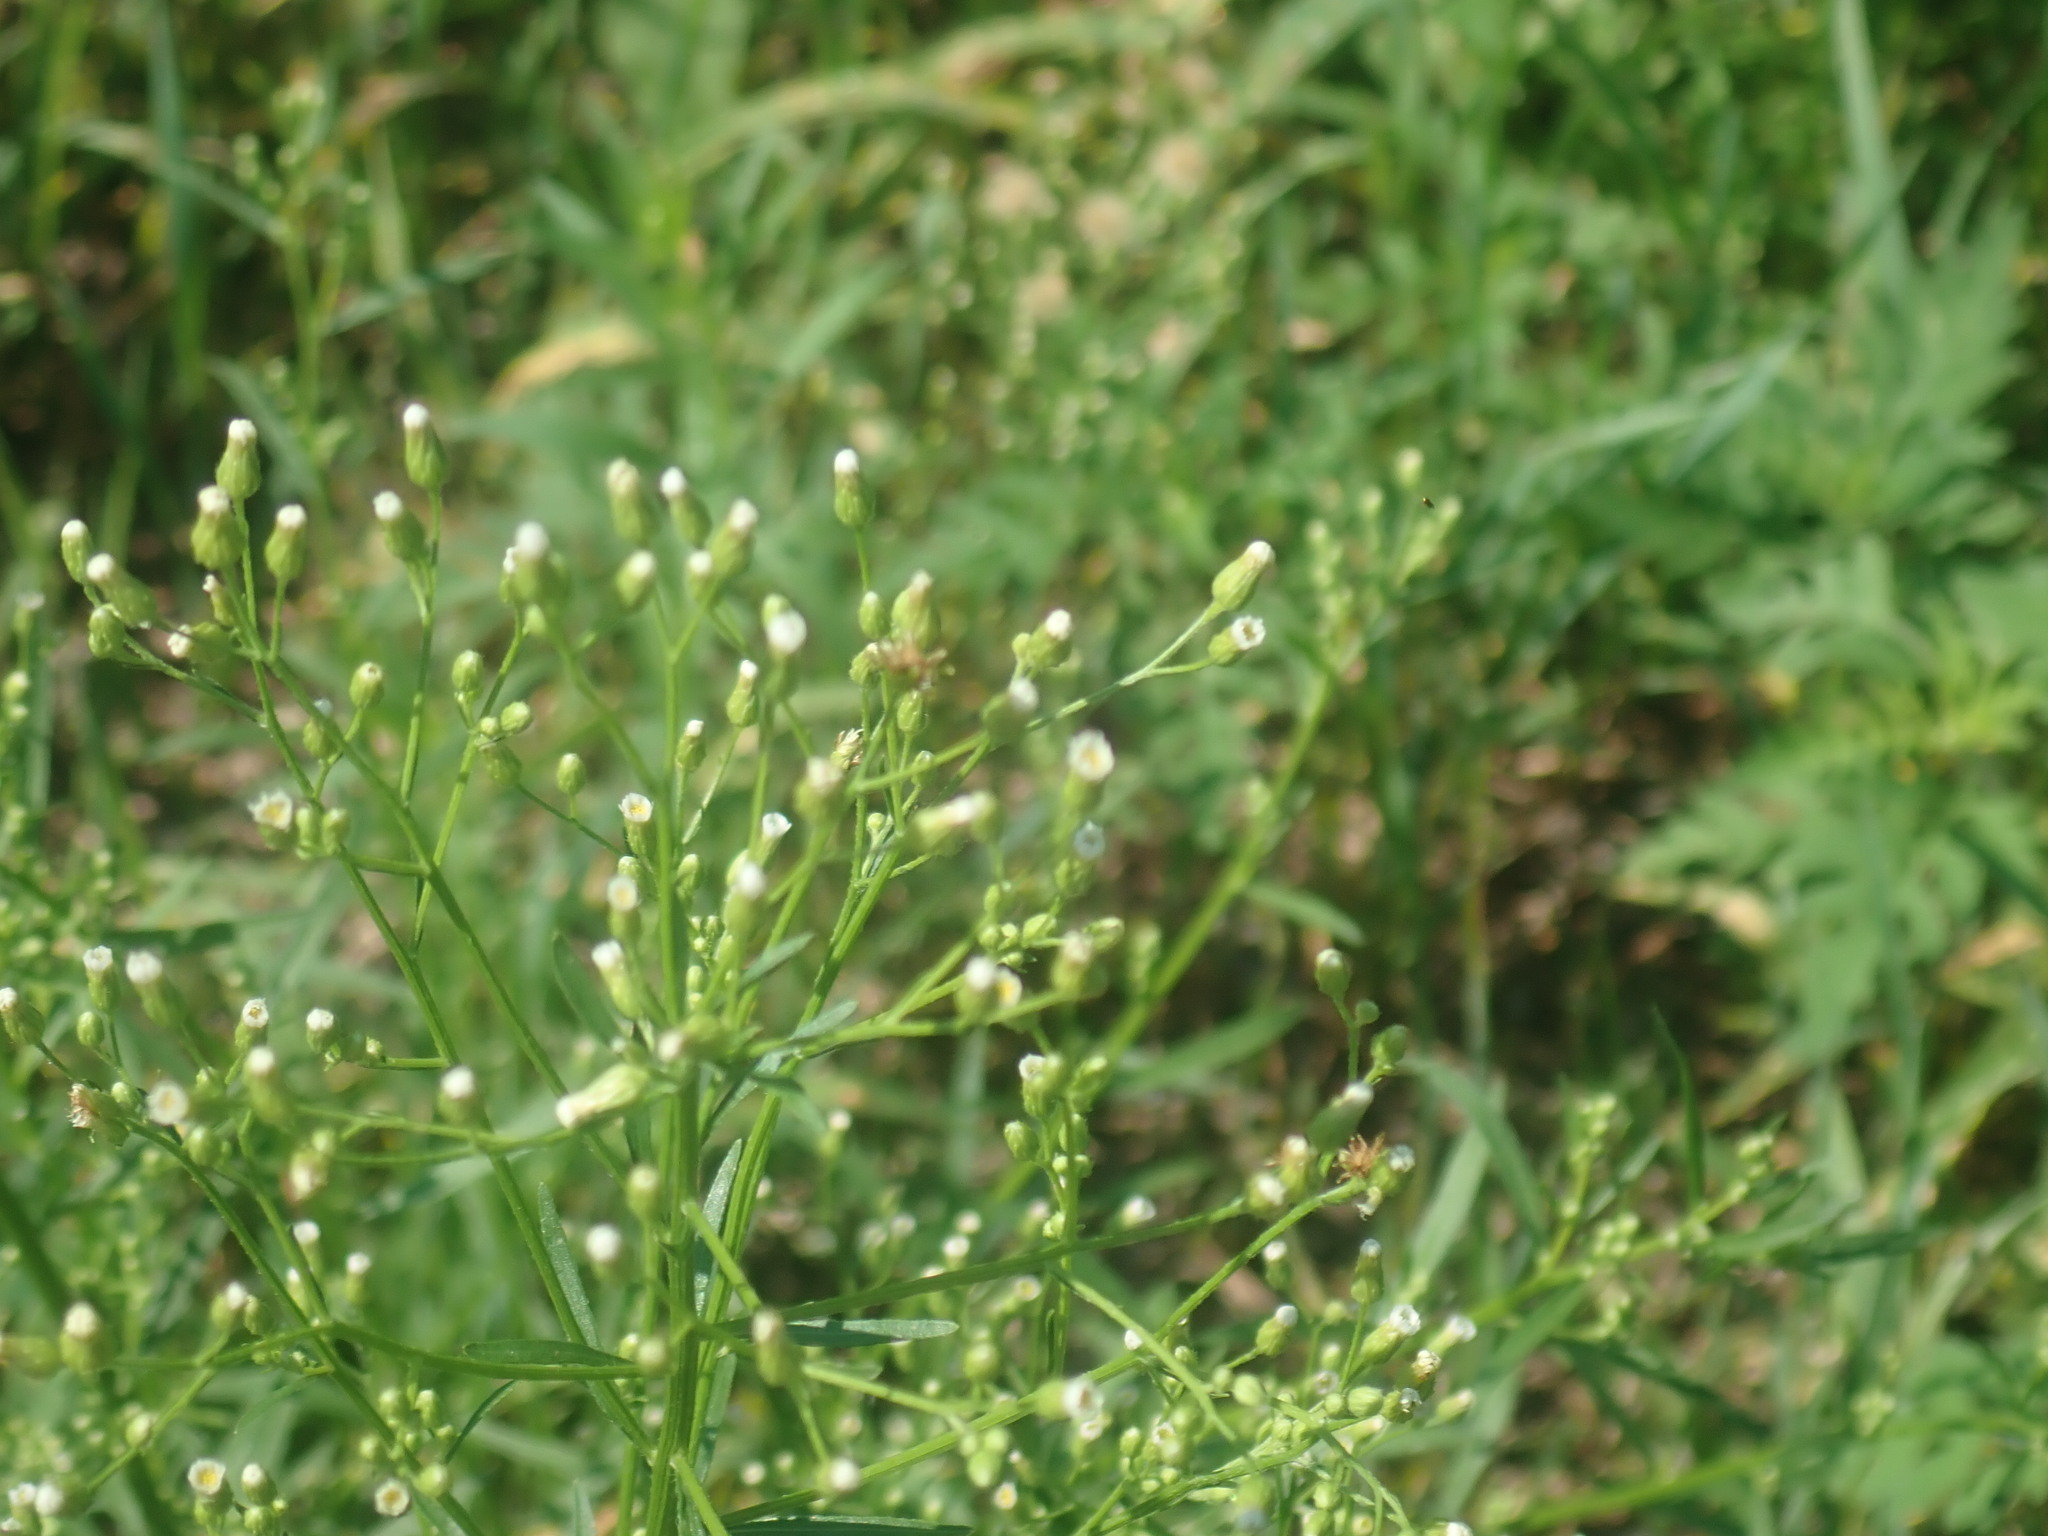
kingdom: Plantae
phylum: Tracheophyta
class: Magnoliopsida
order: Asterales
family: Asteraceae
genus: Erigeron
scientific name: Erigeron canadensis
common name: Canadian fleabane
